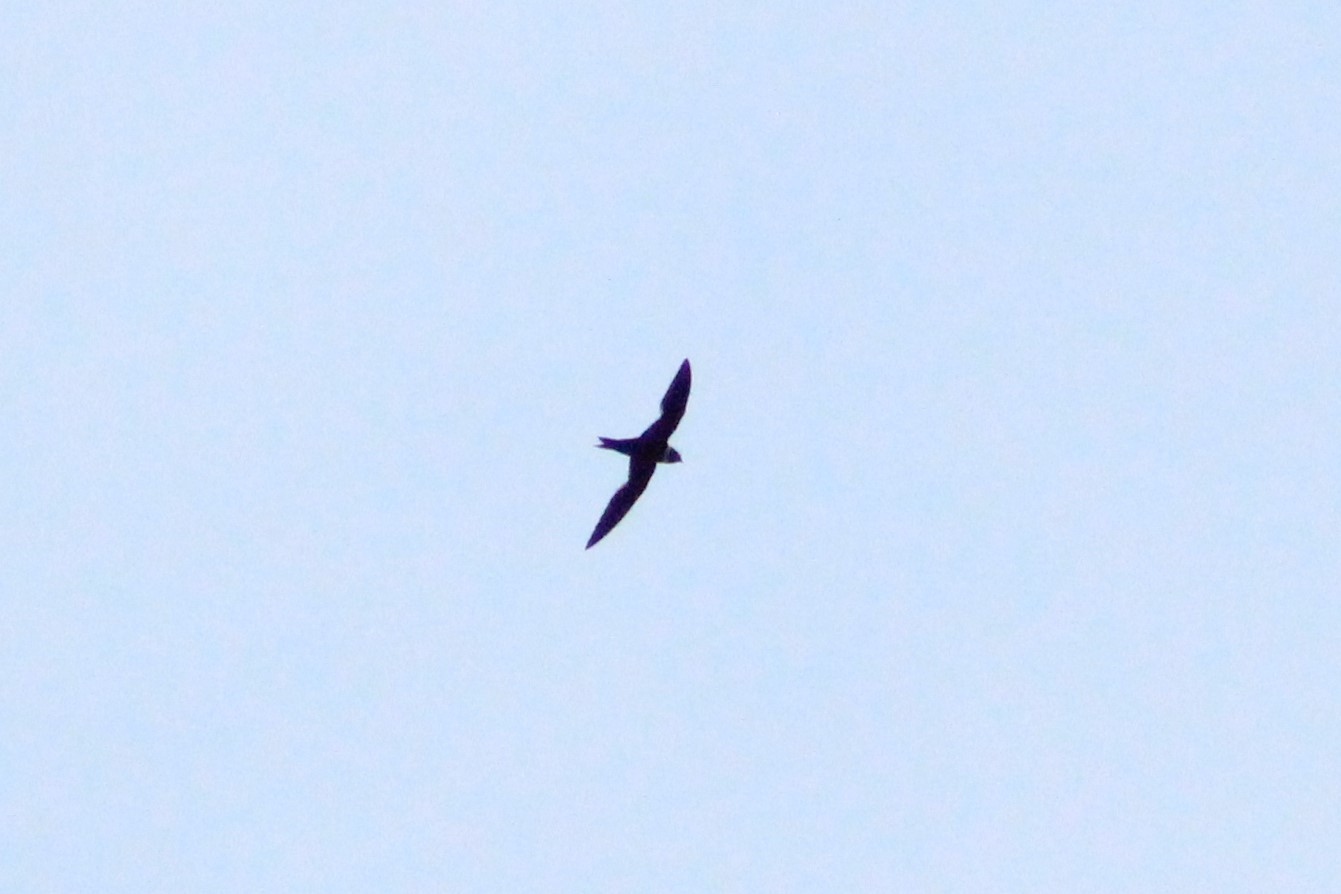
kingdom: Animalia
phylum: Chordata
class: Aves
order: Apodiformes
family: Apodidae
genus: Streptoprocne
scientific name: Streptoprocne zonaris
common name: White-collared swift
